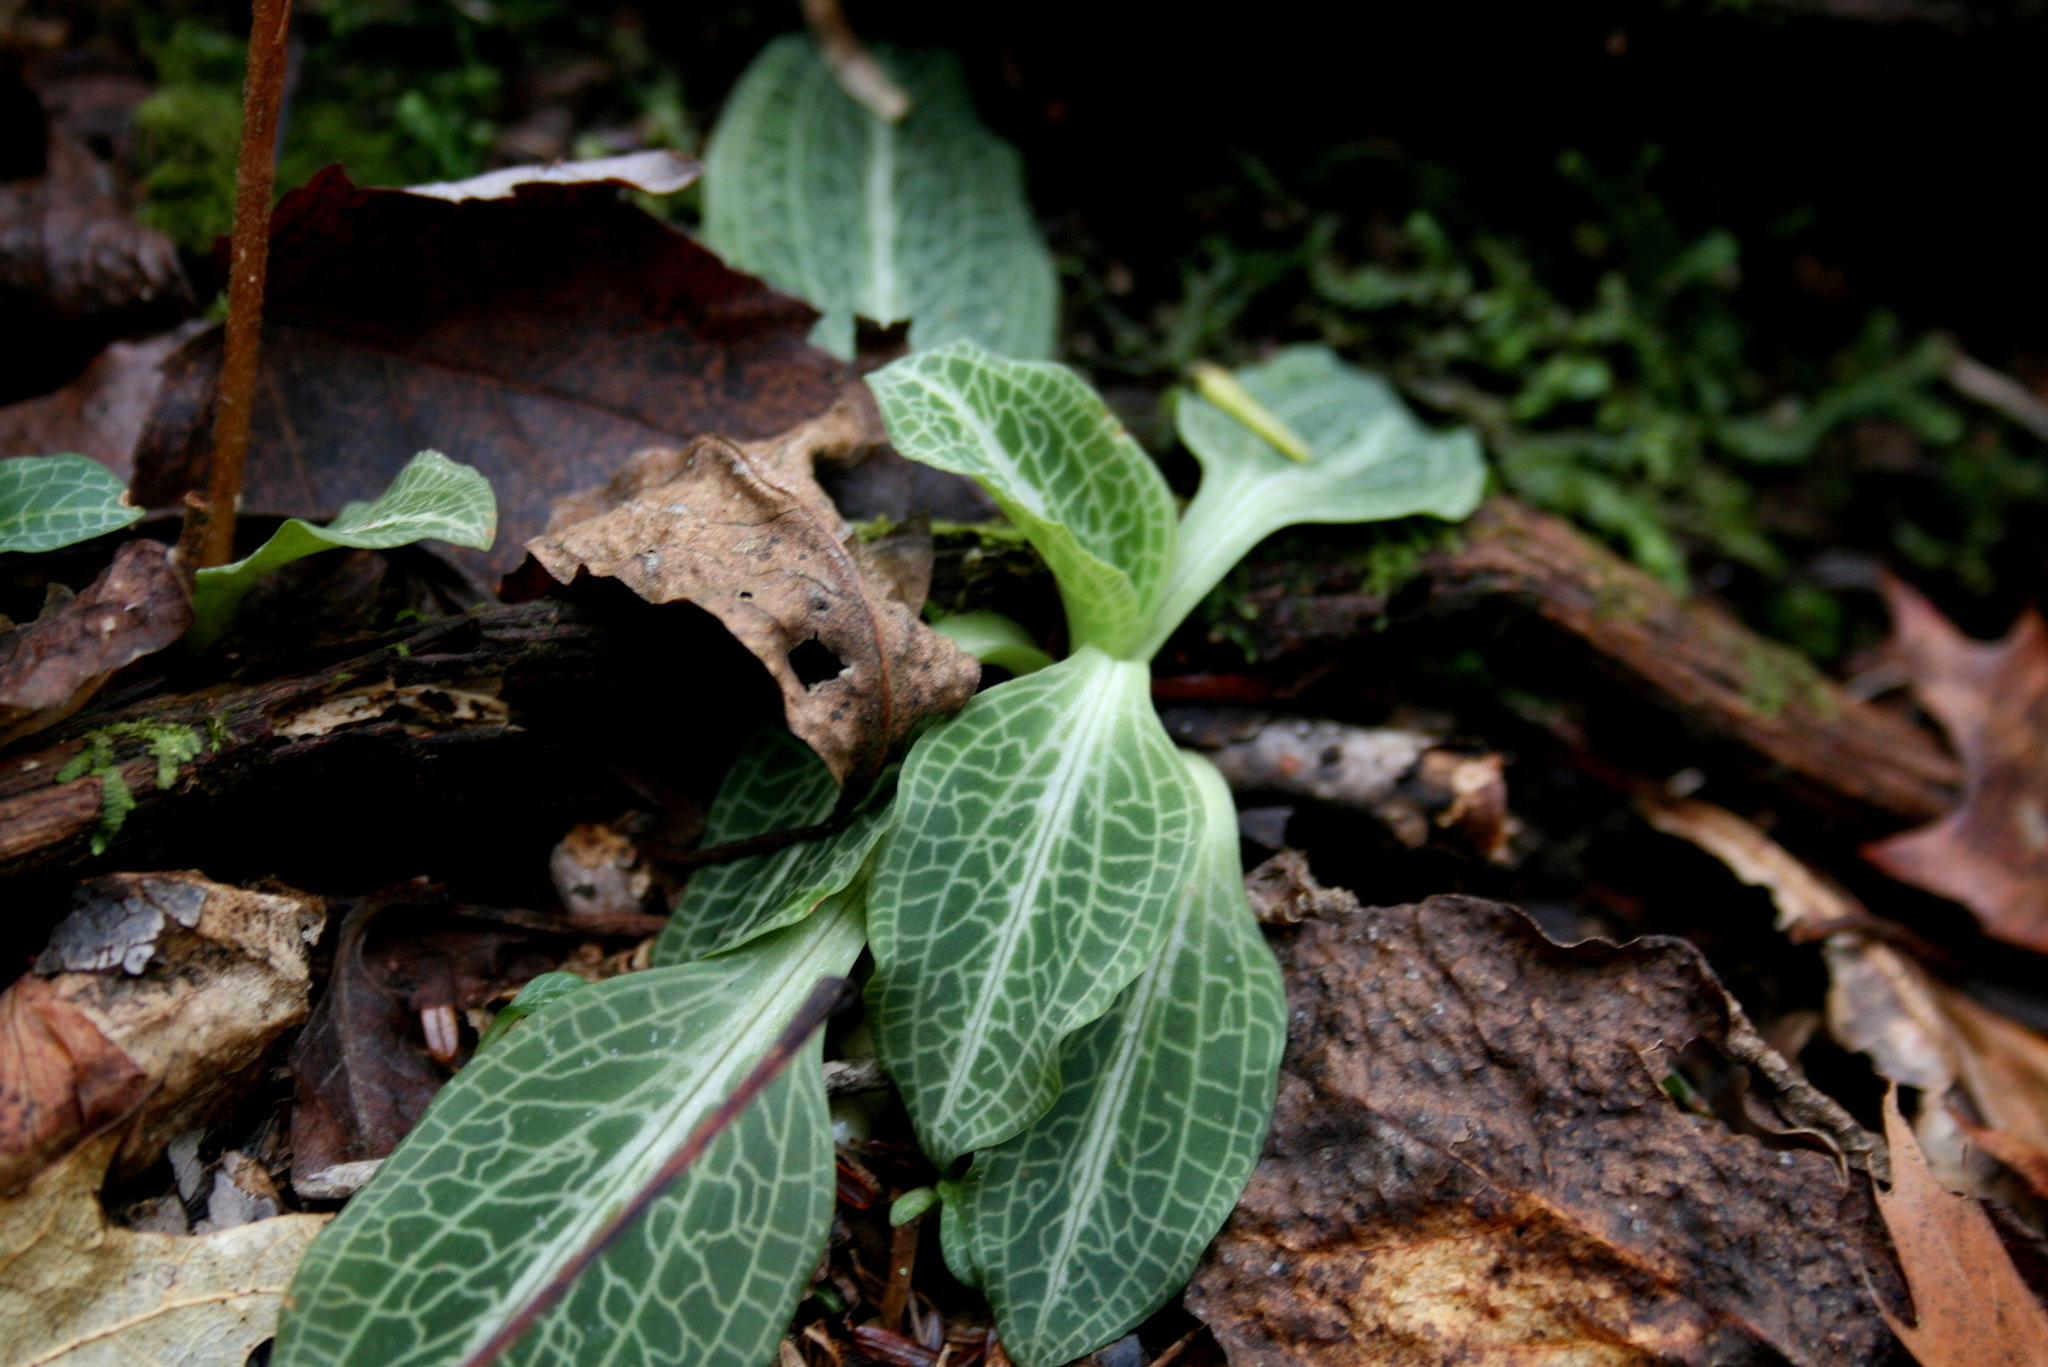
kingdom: Plantae
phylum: Tracheophyta
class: Liliopsida
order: Asparagales
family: Orchidaceae
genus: Goodyera
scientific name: Goodyera pubescens
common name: Downy rattlesnake-plantain
